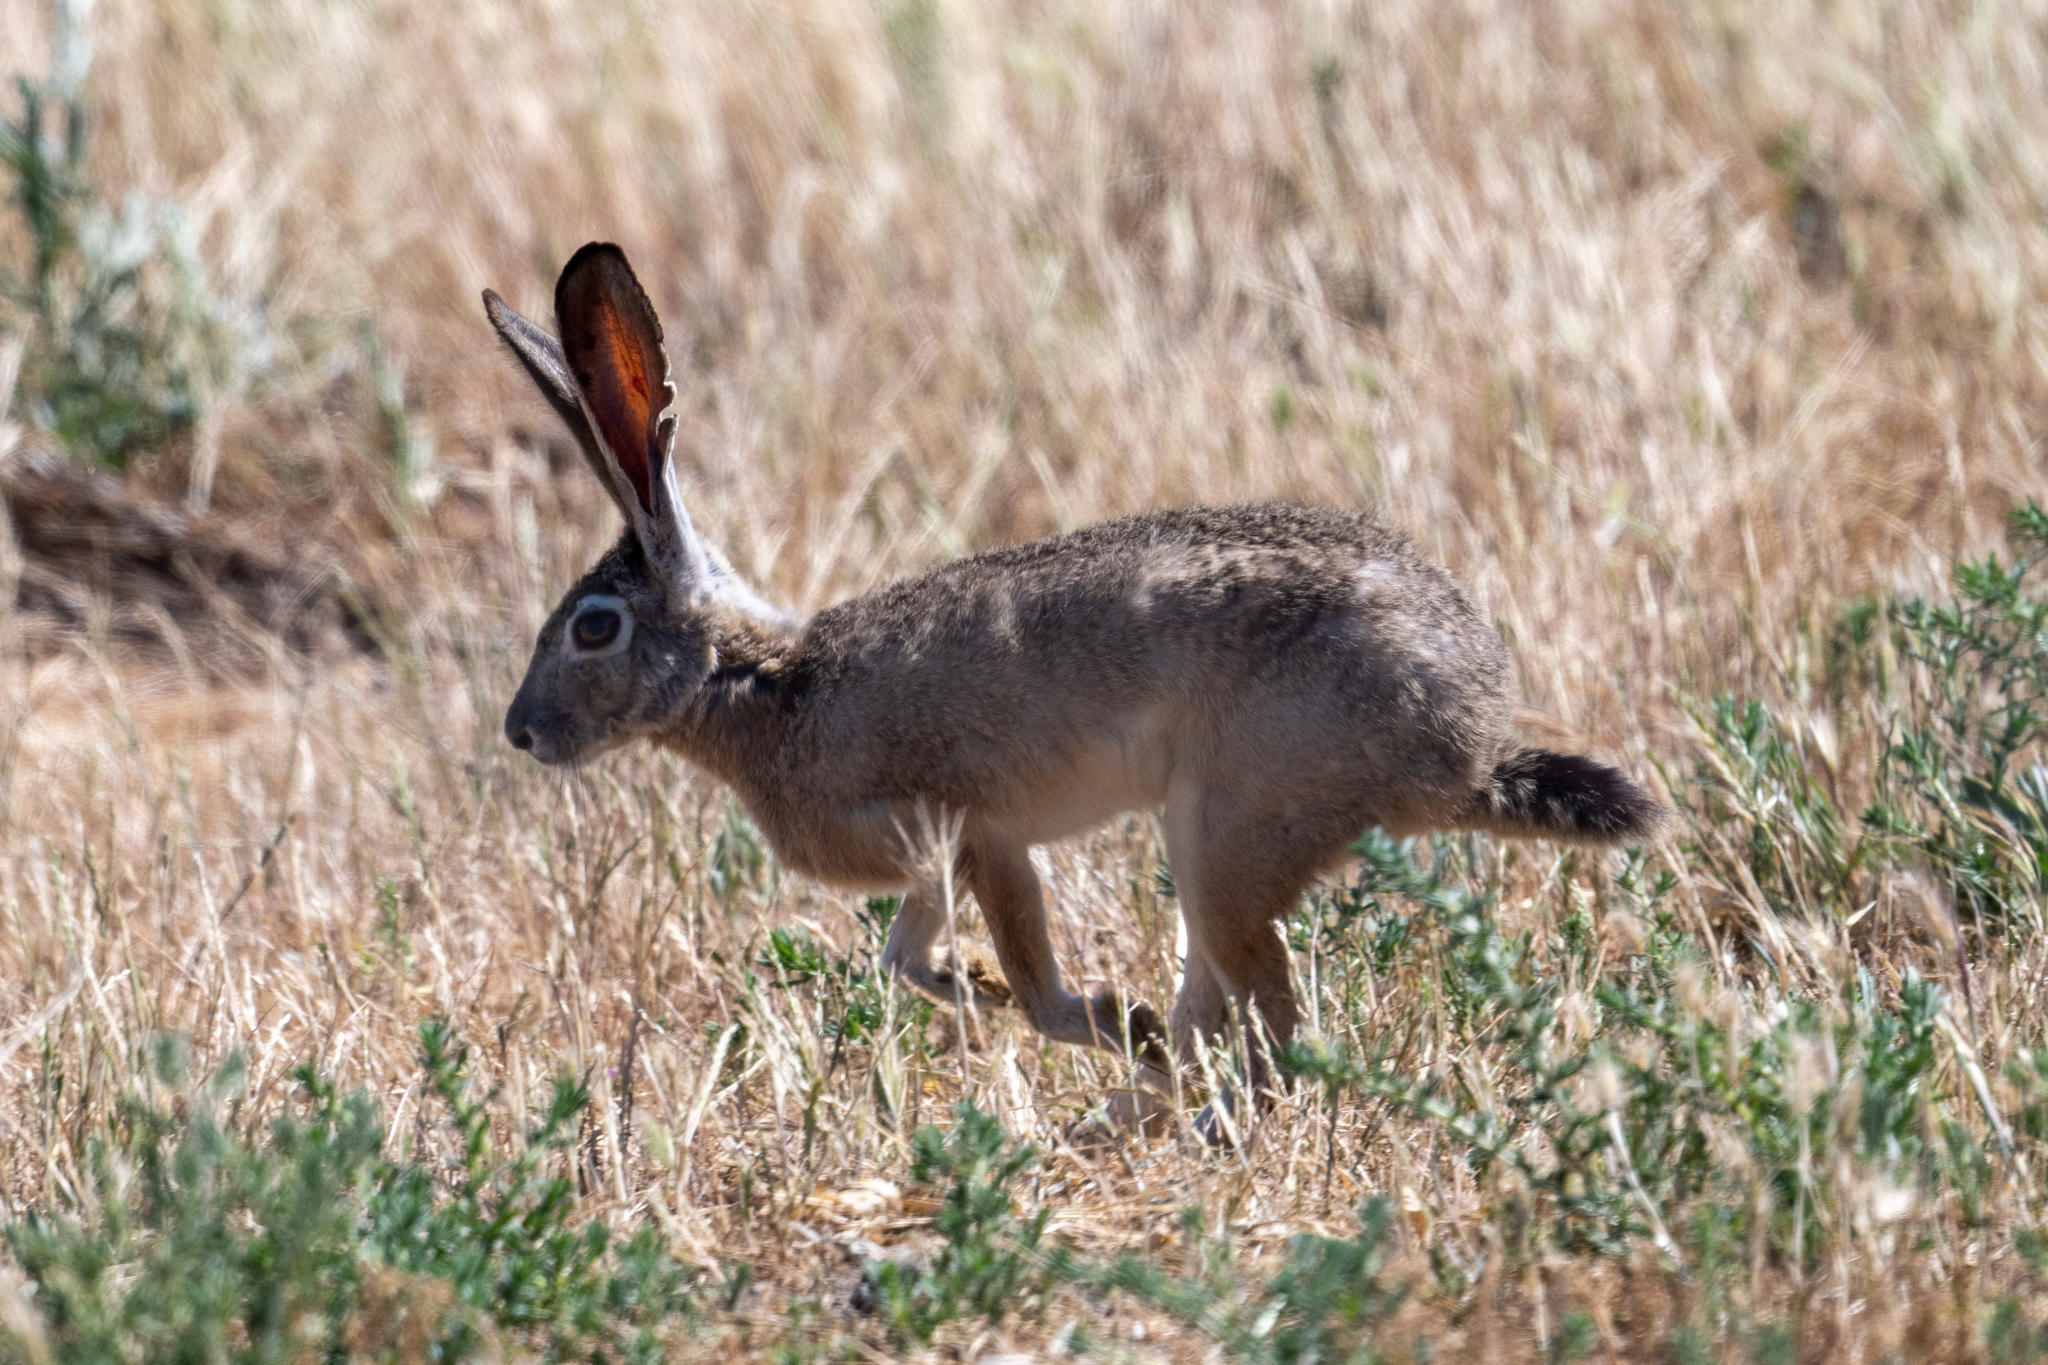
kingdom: Animalia
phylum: Chordata
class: Mammalia
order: Lagomorpha
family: Leporidae
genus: Lepus
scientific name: Lepus californicus
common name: Black-tailed jackrabbit
